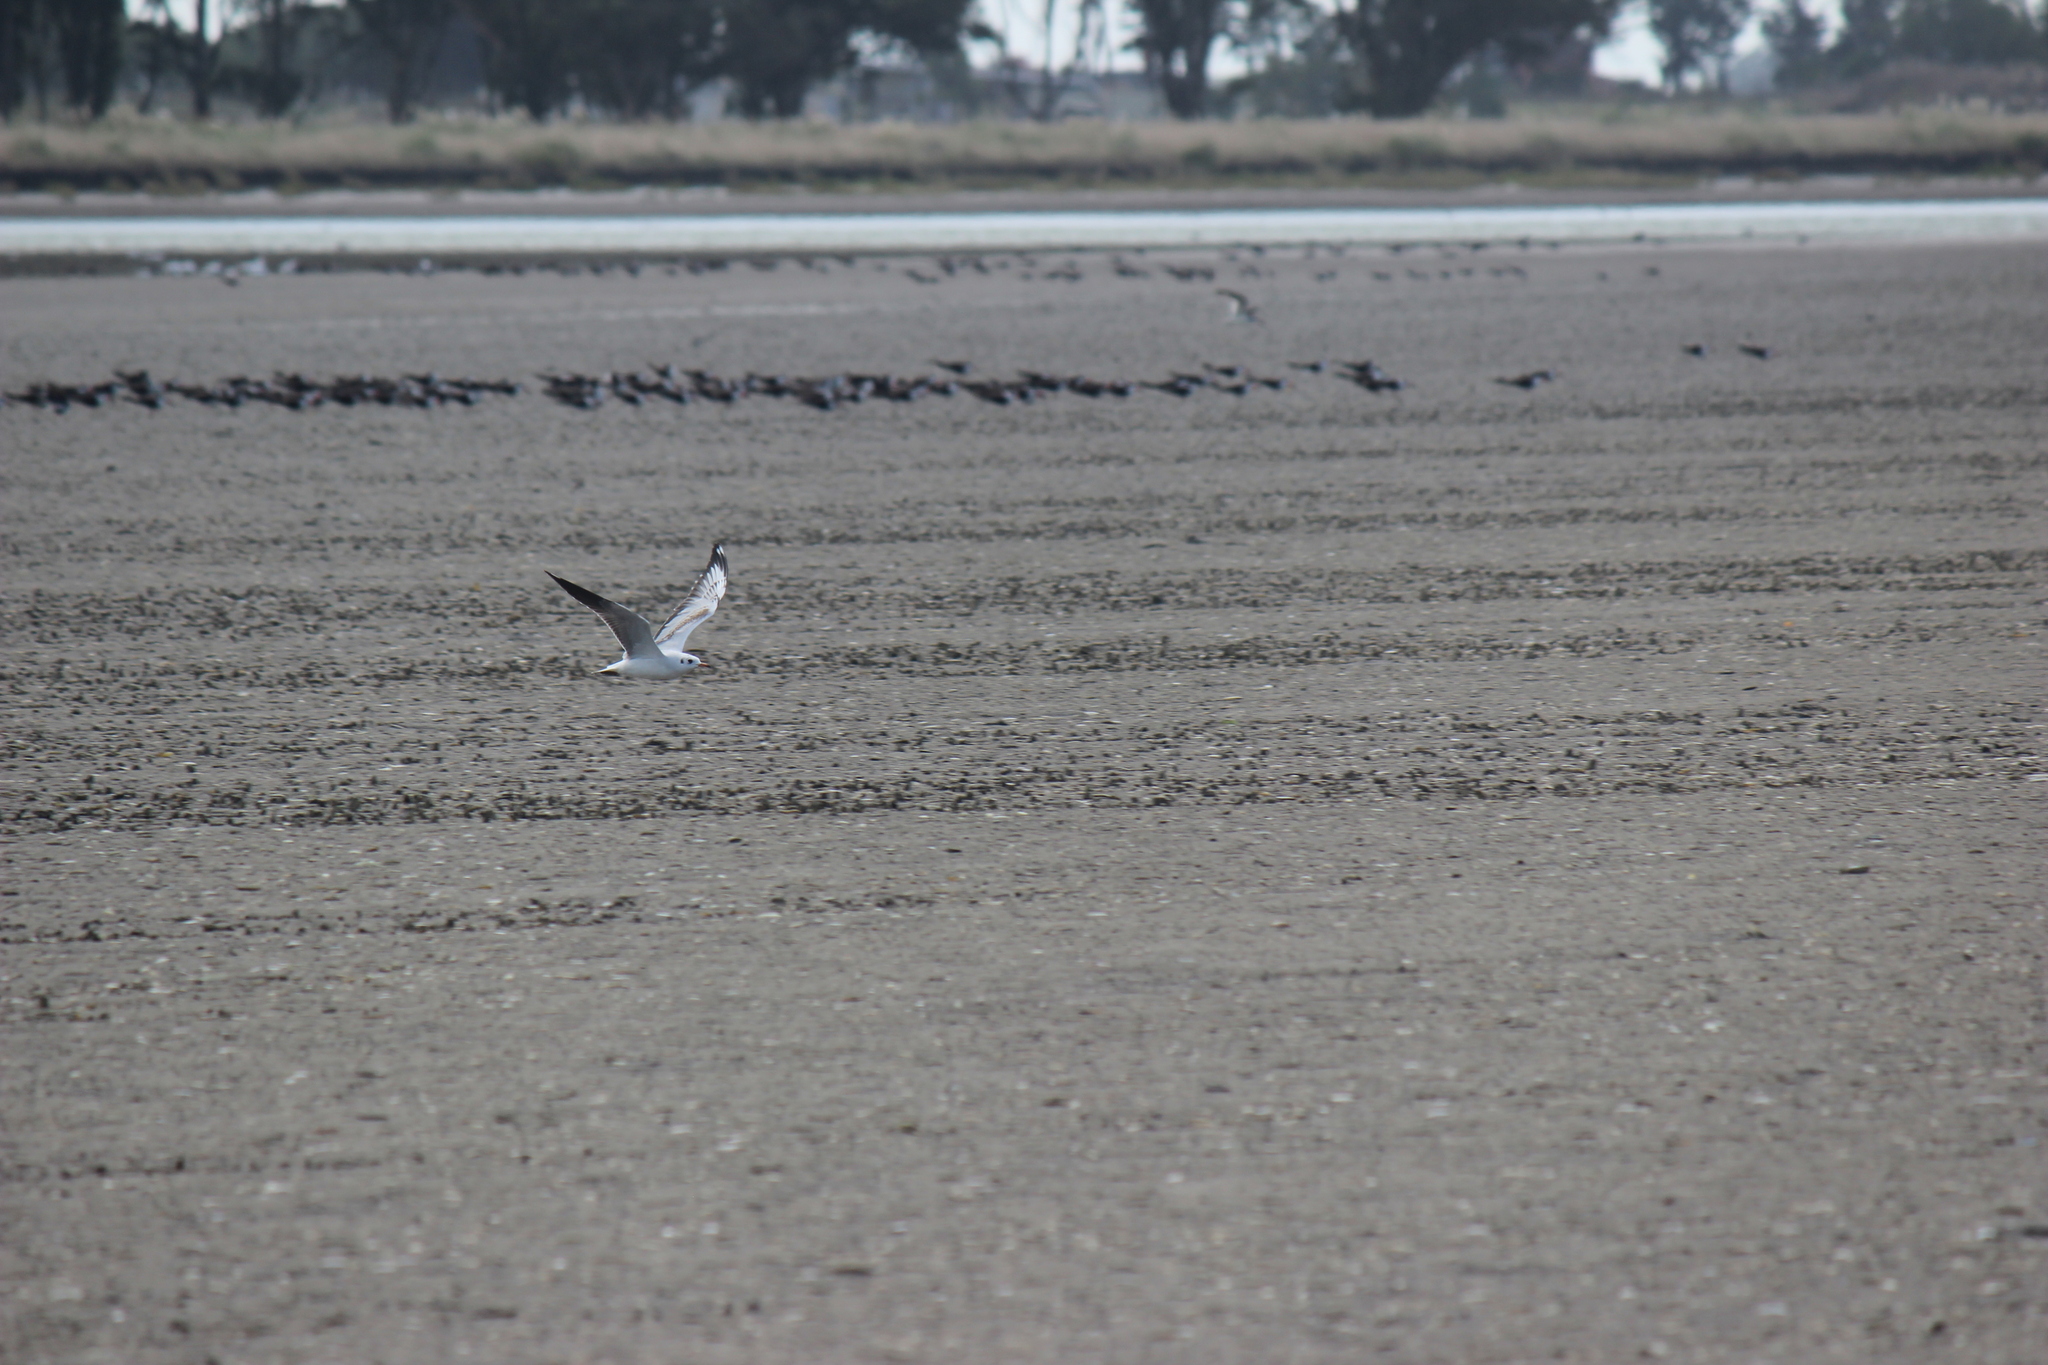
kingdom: Animalia
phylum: Chordata
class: Aves
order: Charadriiformes
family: Laridae
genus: Chroicocephalus
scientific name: Chroicocephalus maculipennis
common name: Brown-hooded gull
